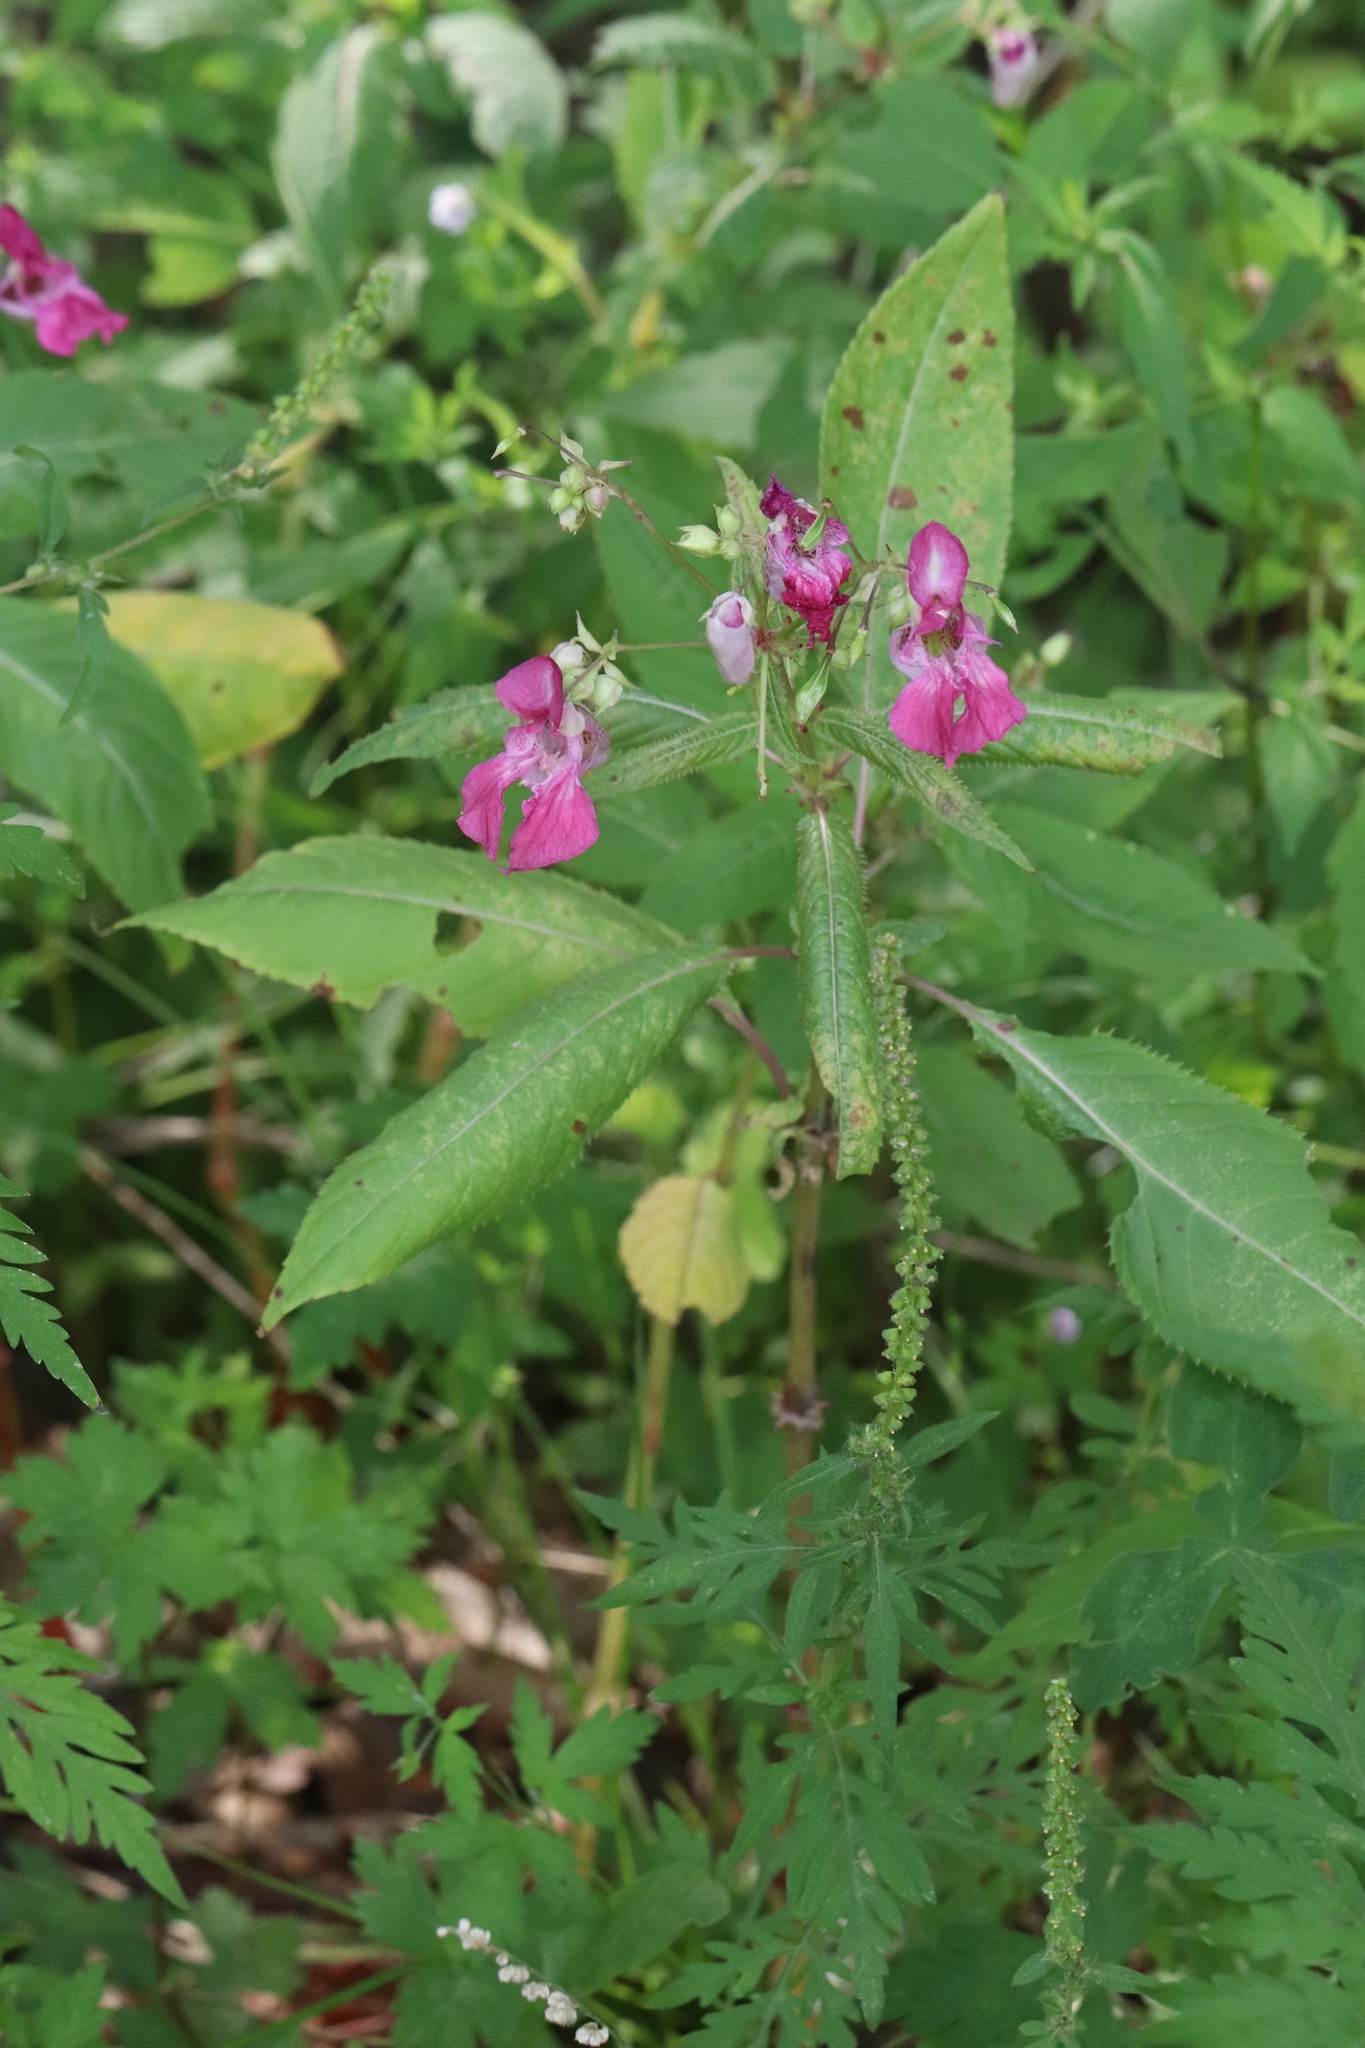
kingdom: Plantae
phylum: Tracheophyta
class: Magnoliopsida
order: Ericales
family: Balsaminaceae
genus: Impatiens
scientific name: Impatiens glandulifera
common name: Himalayan balsam
